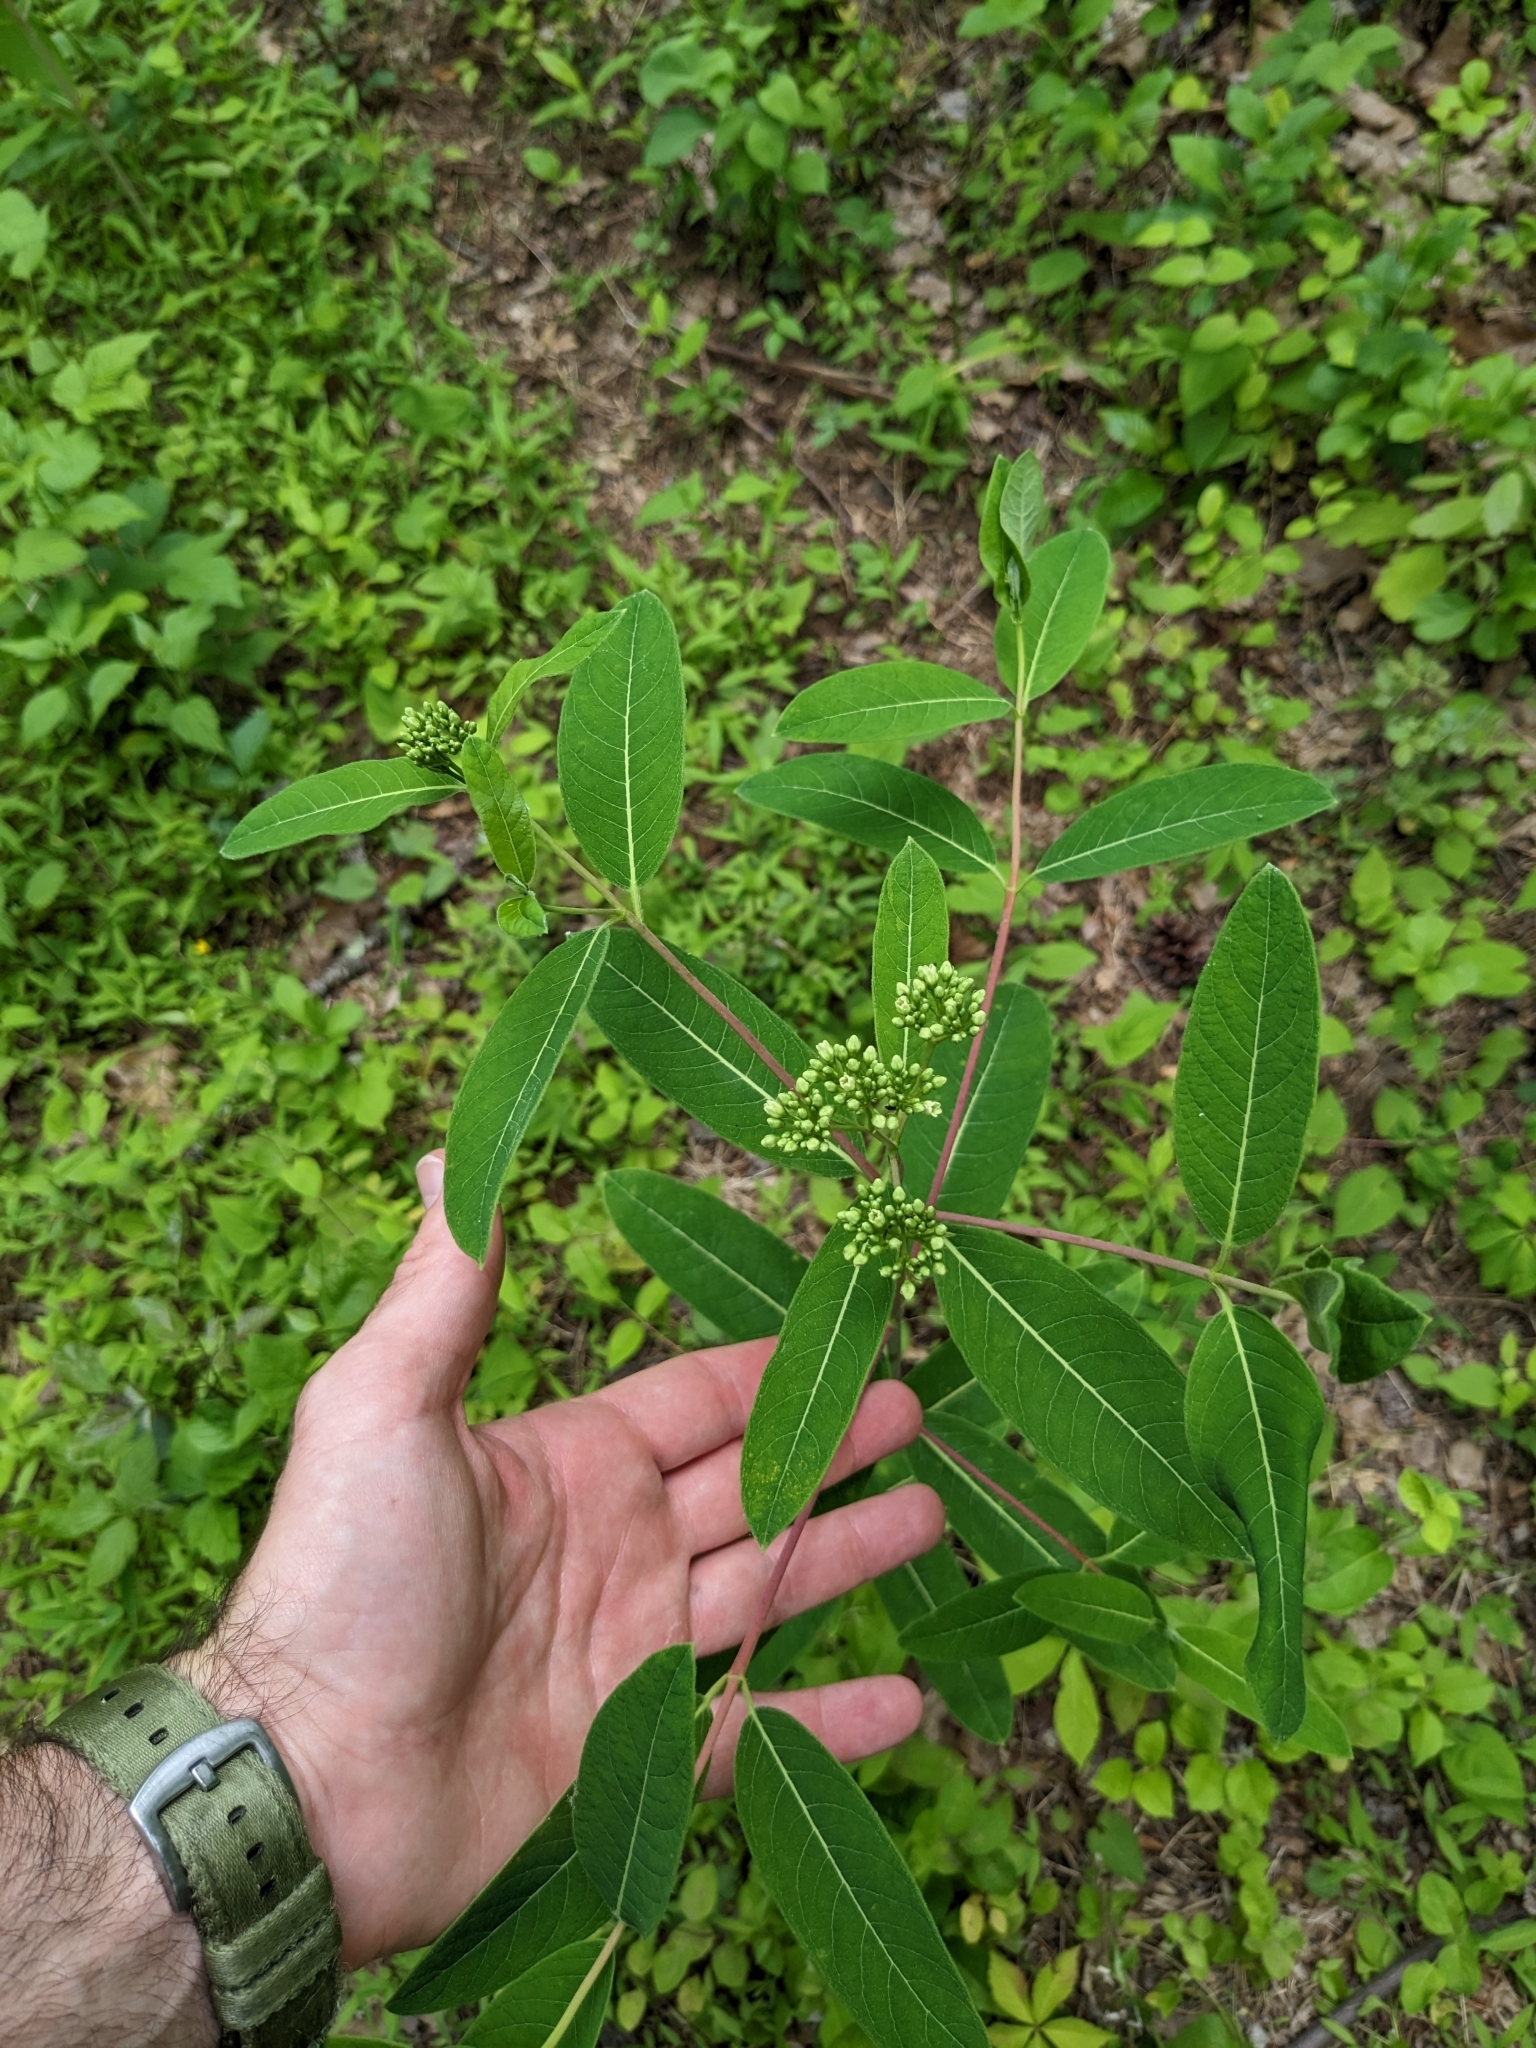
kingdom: Plantae
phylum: Tracheophyta
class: Magnoliopsida
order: Gentianales
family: Apocynaceae
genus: Apocynum
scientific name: Apocynum cannabinum
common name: Hemp dogbane
